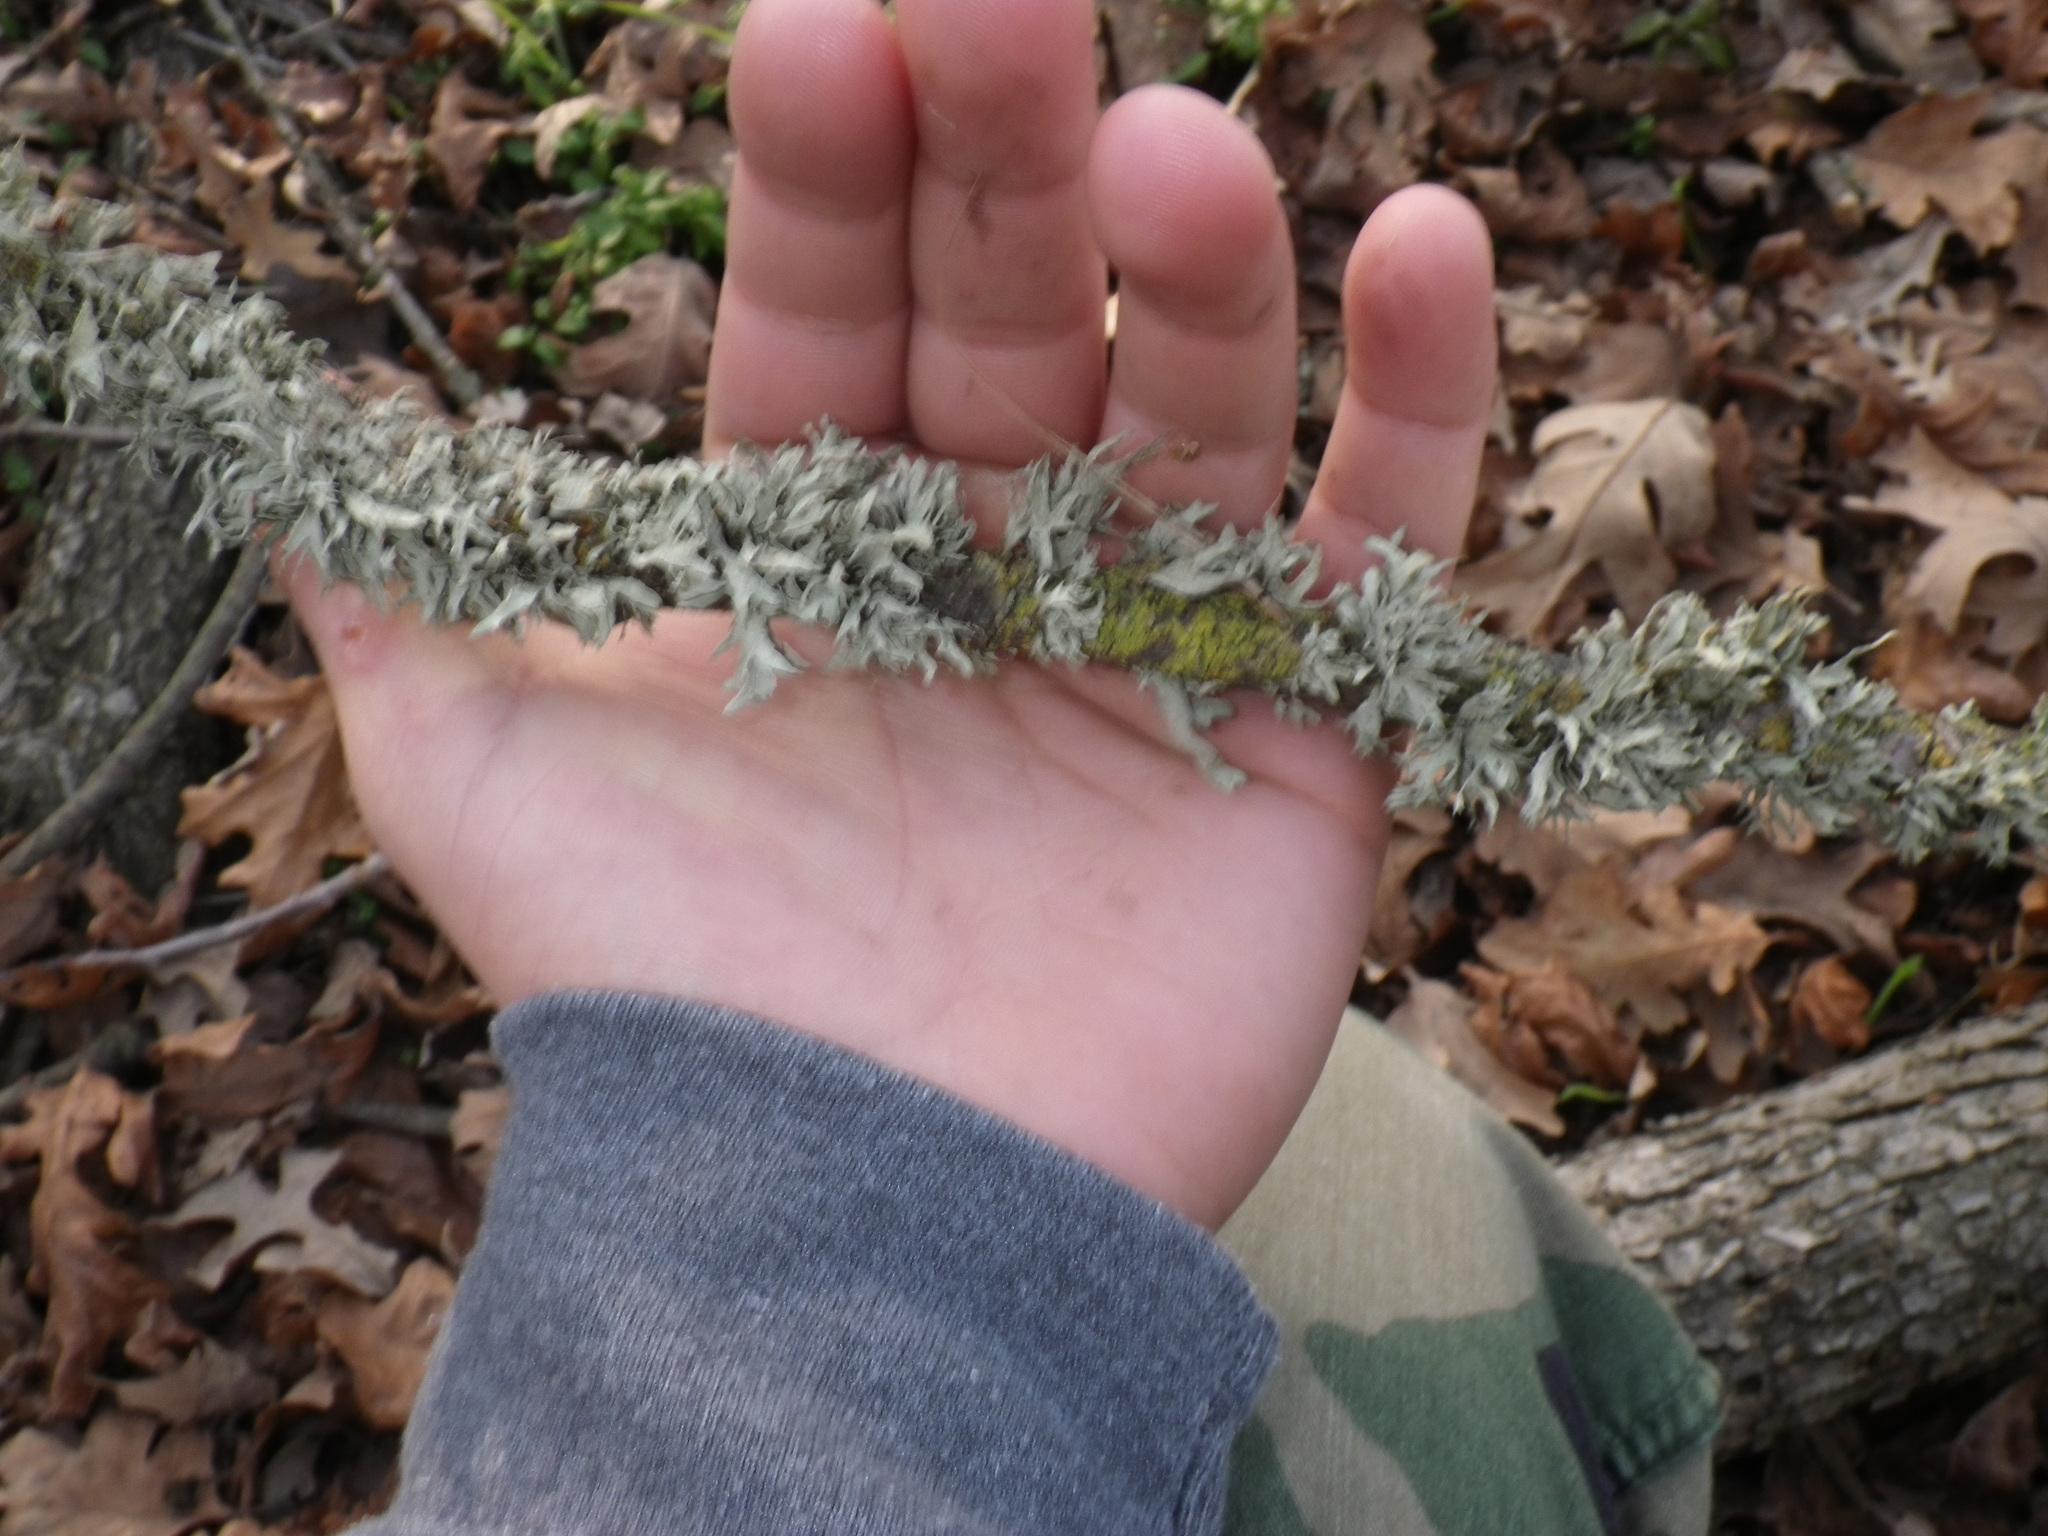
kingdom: Fungi
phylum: Ascomycota
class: Lecanoromycetes
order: Lecanorales
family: Parmeliaceae
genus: Evernia
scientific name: Evernia prunastri
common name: Oak moss
